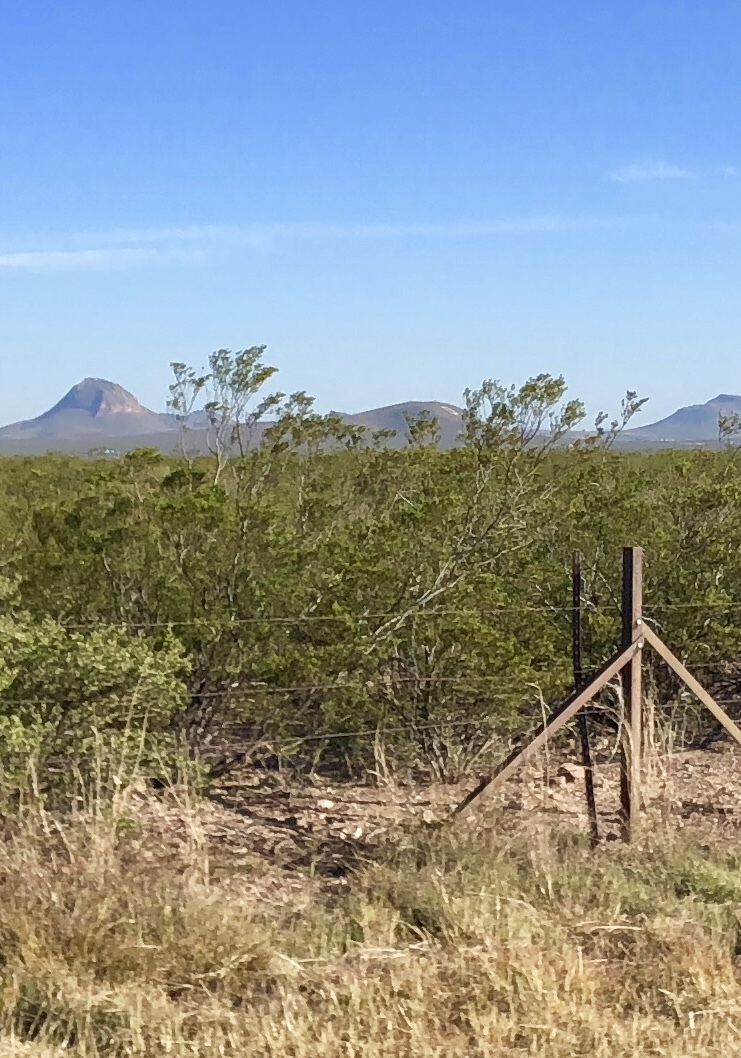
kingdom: Plantae
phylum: Tracheophyta
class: Magnoliopsida
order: Zygophyllales
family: Zygophyllaceae
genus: Larrea
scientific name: Larrea tridentata
